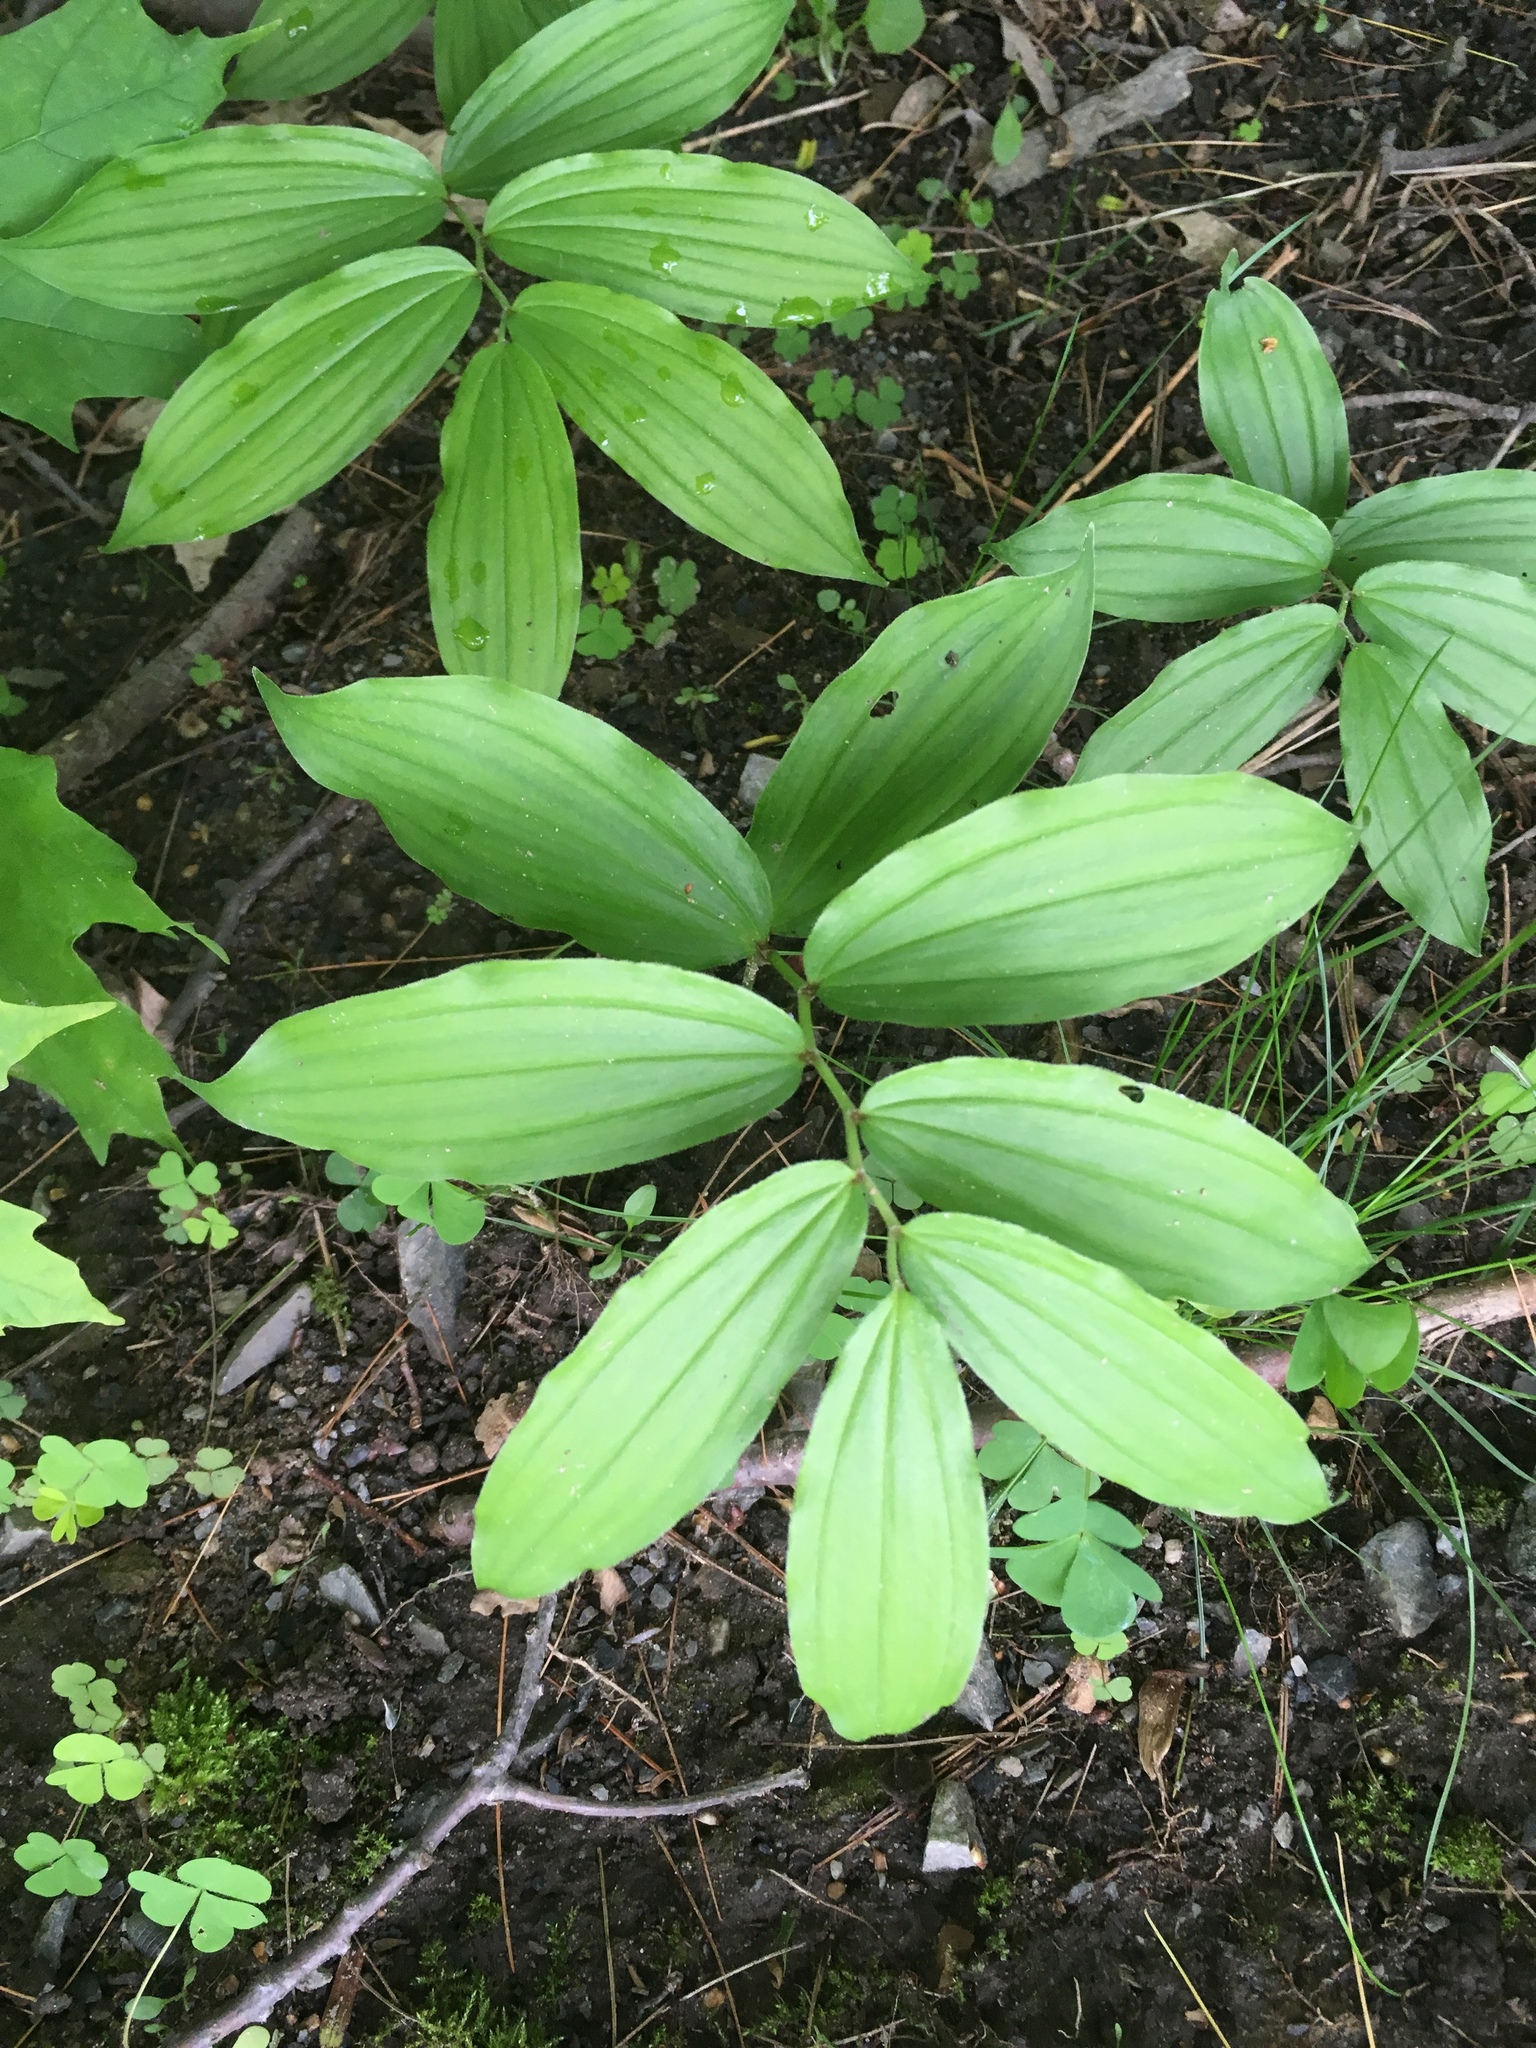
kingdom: Plantae
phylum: Tracheophyta
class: Liliopsida
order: Asparagales
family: Asparagaceae
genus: Maianthemum
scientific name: Maianthemum racemosum
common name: False spikenard
